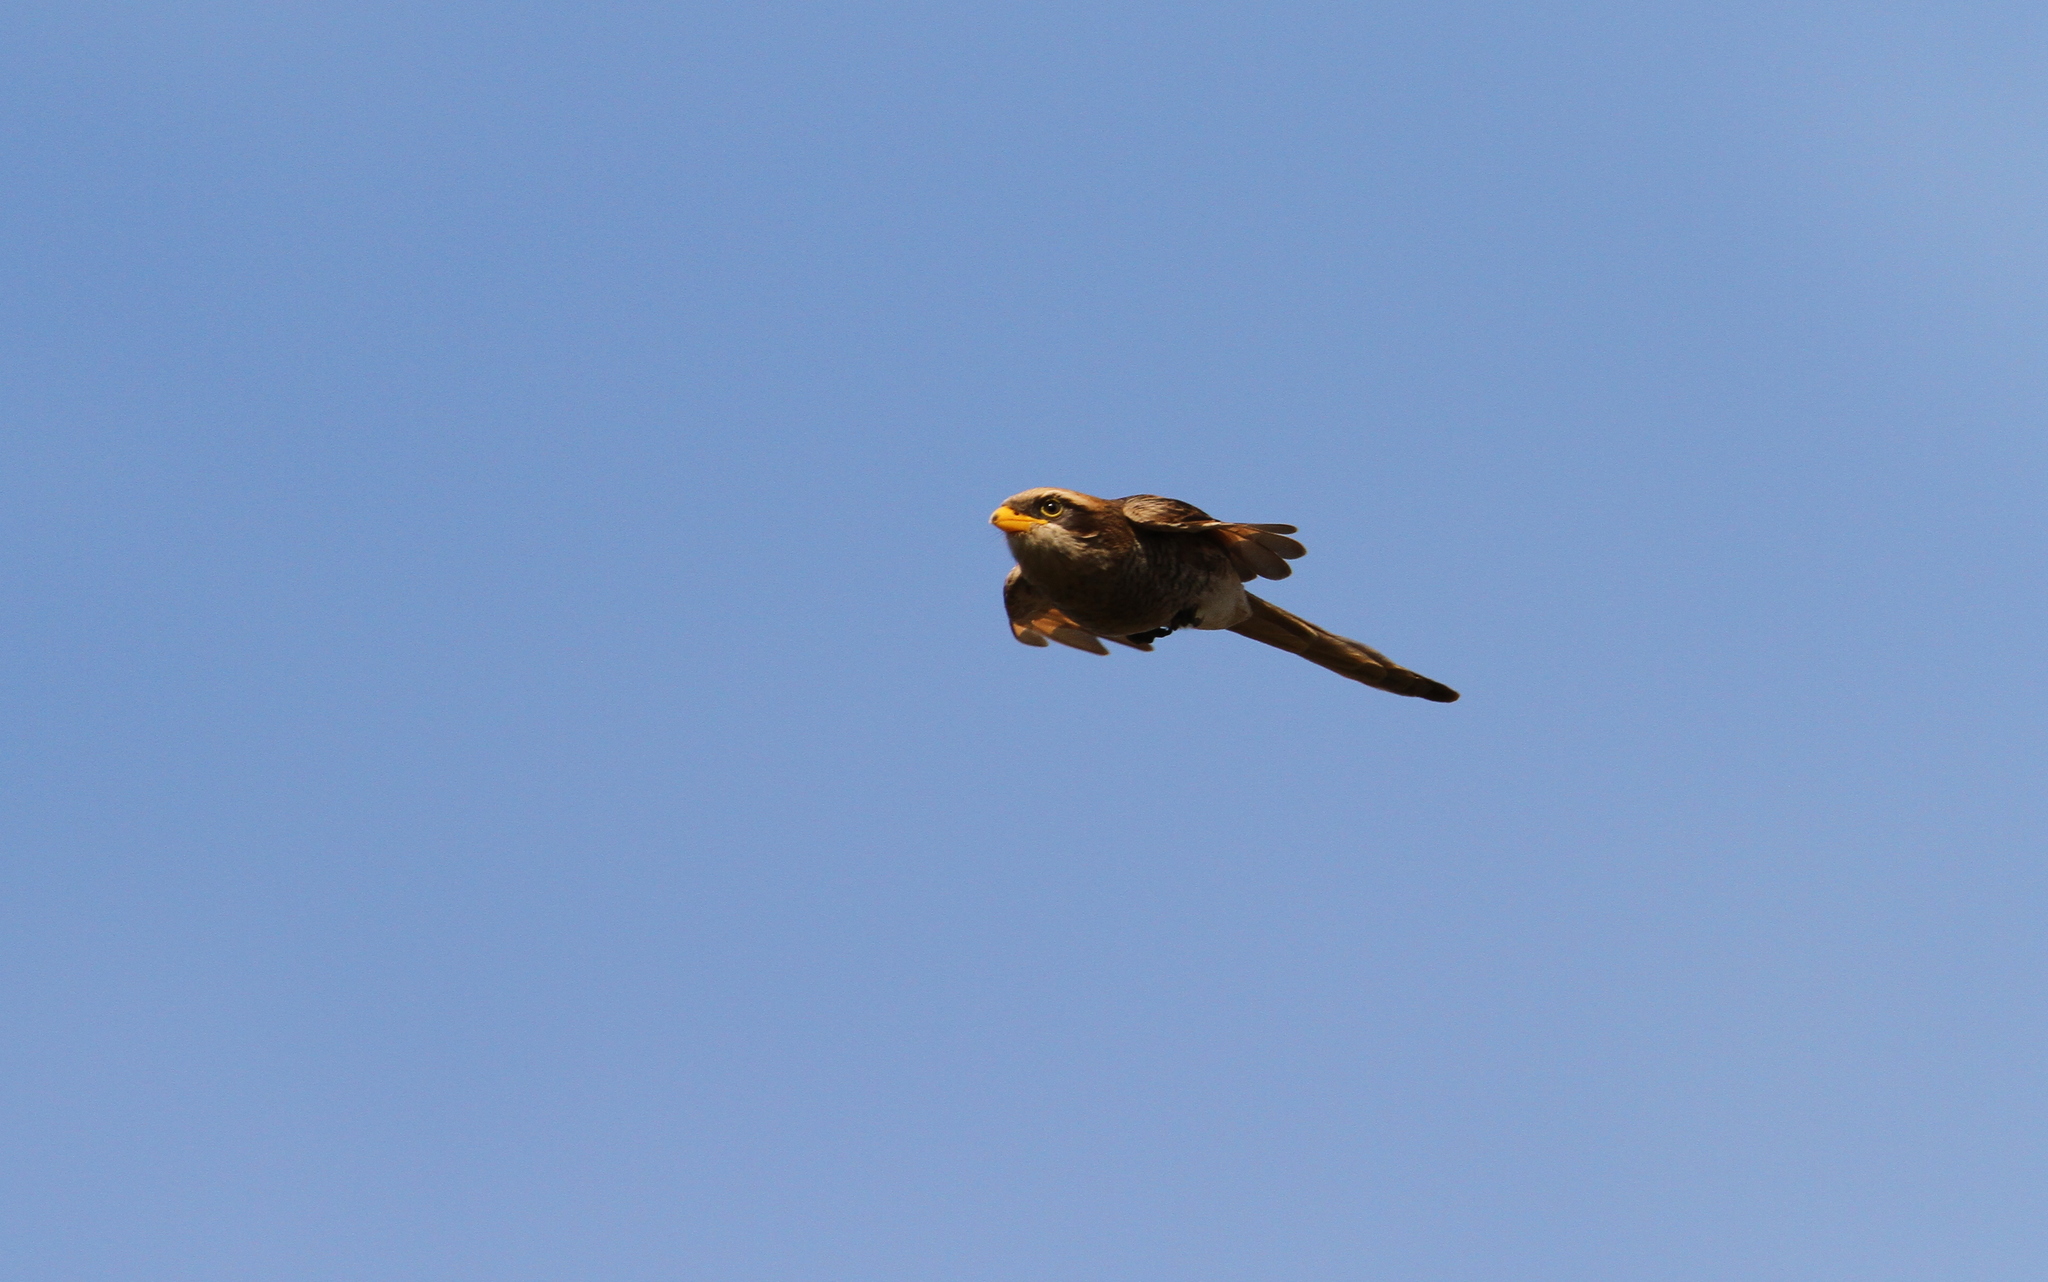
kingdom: Animalia
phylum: Chordata
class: Aves
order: Passeriformes
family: Laniidae
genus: Corvinella
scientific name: Corvinella corvina
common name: Yellow-billed shrike
